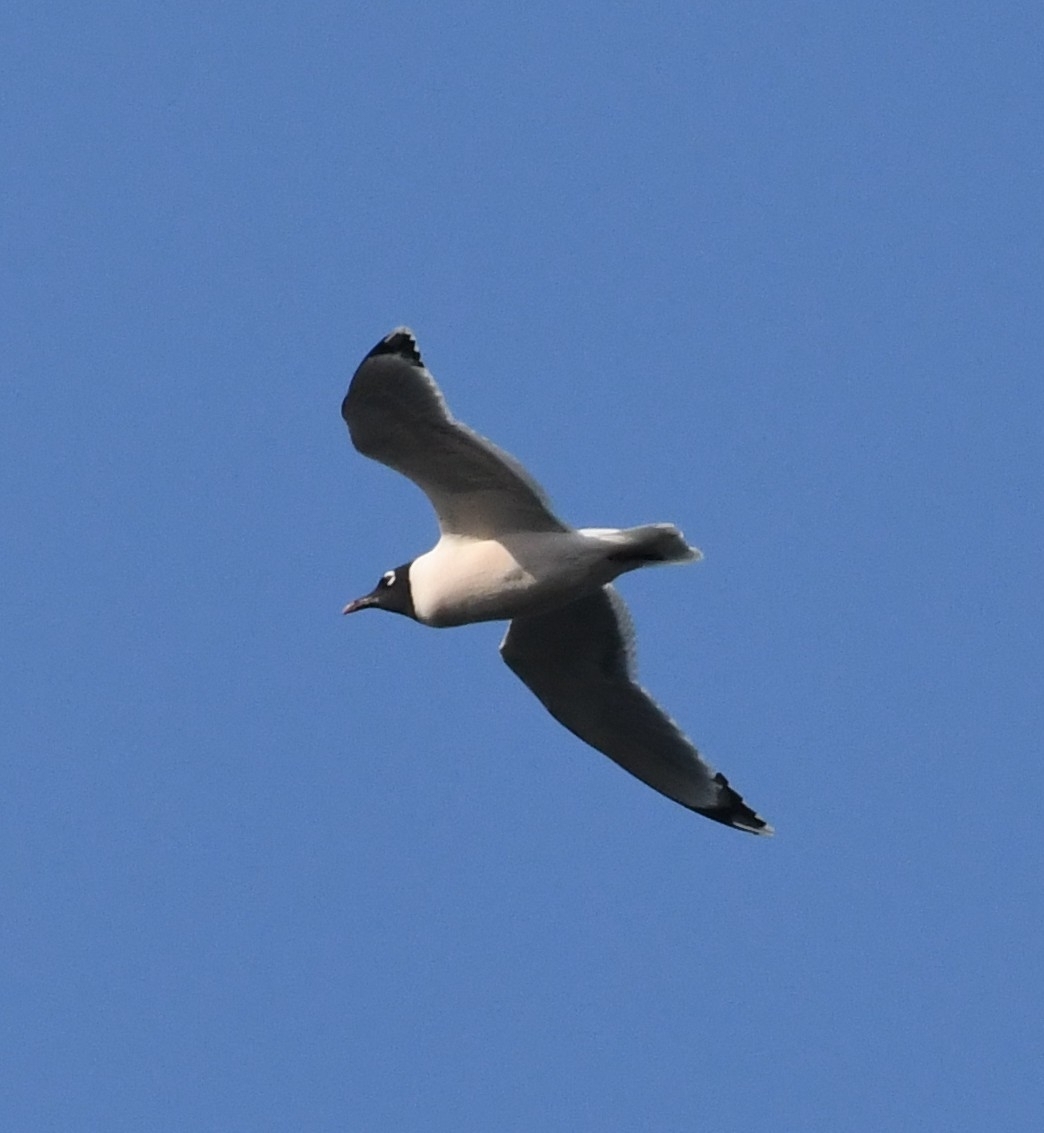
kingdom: Animalia
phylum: Chordata
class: Aves
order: Charadriiformes
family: Laridae
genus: Leucophaeus
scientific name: Leucophaeus pipixcan
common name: Franklin's gull
